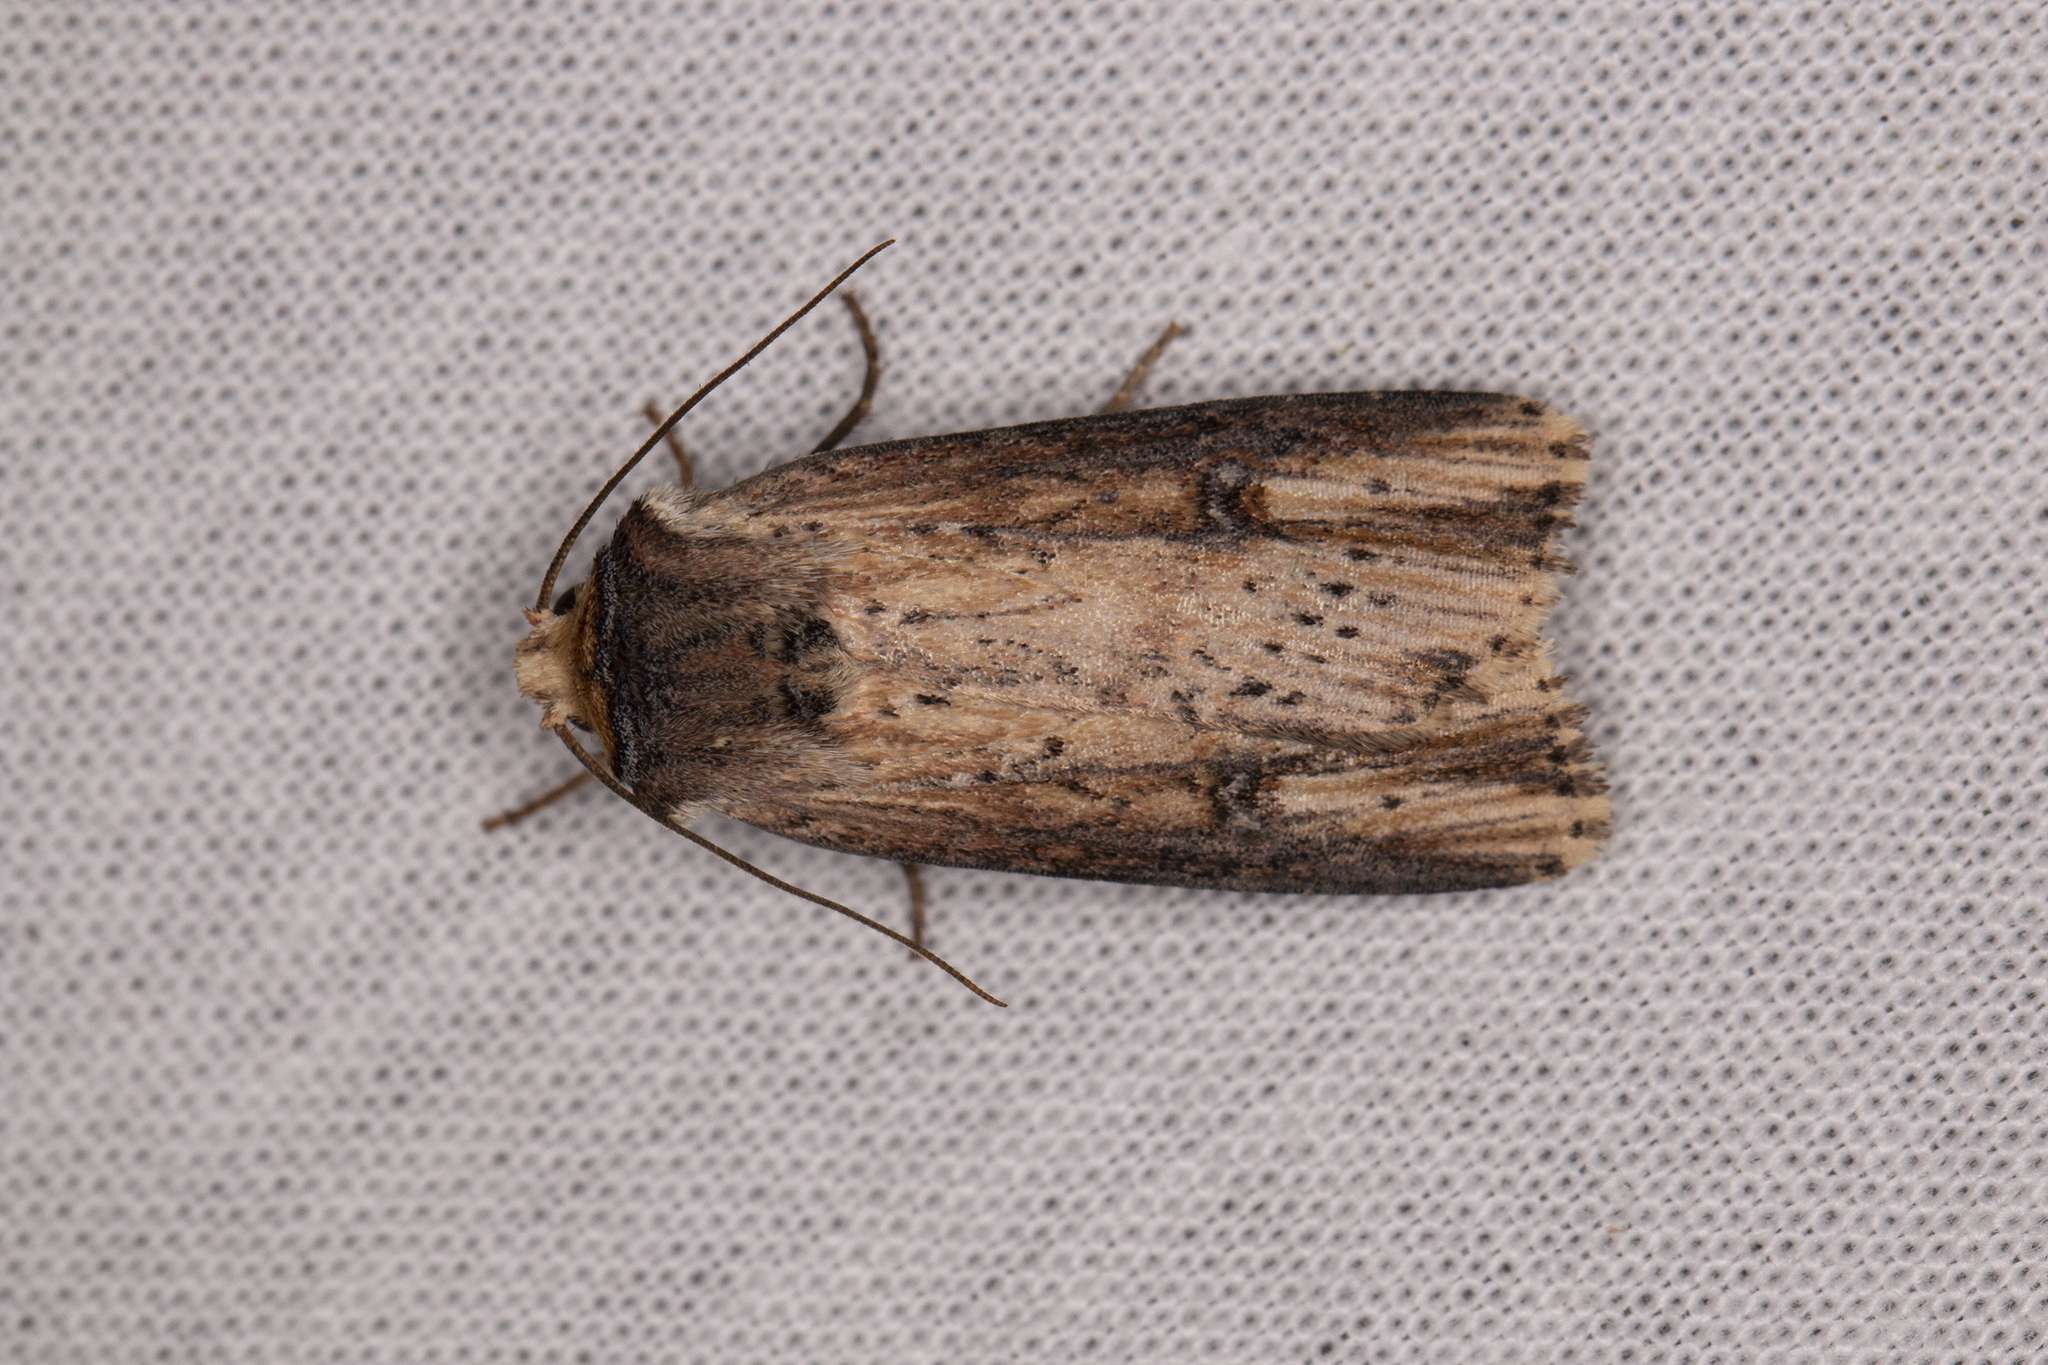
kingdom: Animalia
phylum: Arthropoda
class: Insecta
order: Lepidoptera
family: Noctuidae
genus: Axylia
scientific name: Axylia putris
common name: Flame
